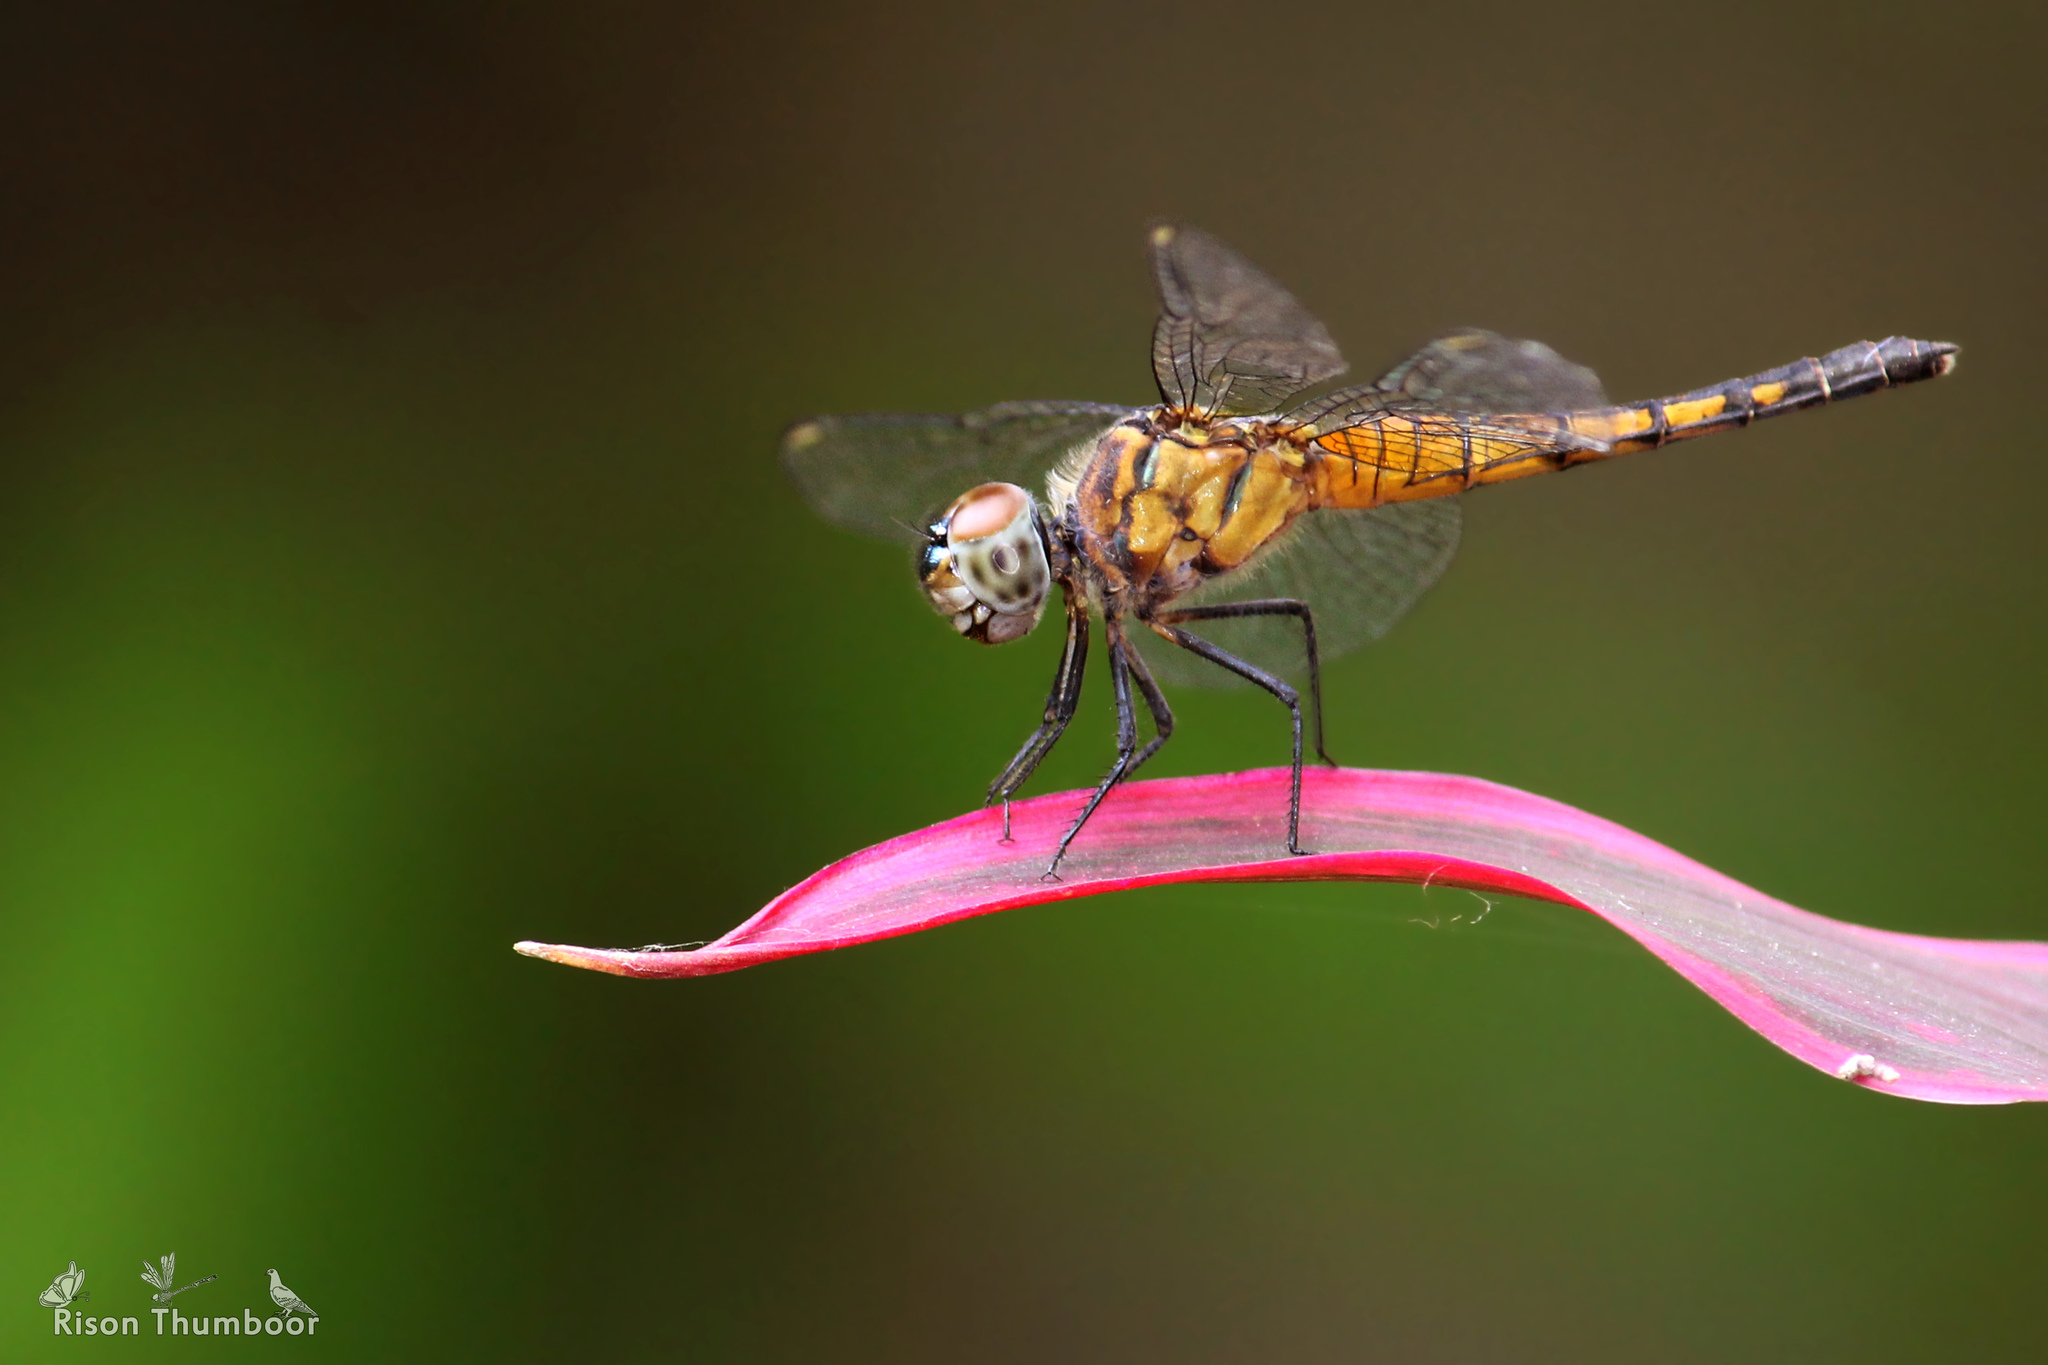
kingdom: Animalia
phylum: Arthropoda
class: Insecta
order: Odonata
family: Libellulidae
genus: Brachydiplax
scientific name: Brachydiplax chalybea
